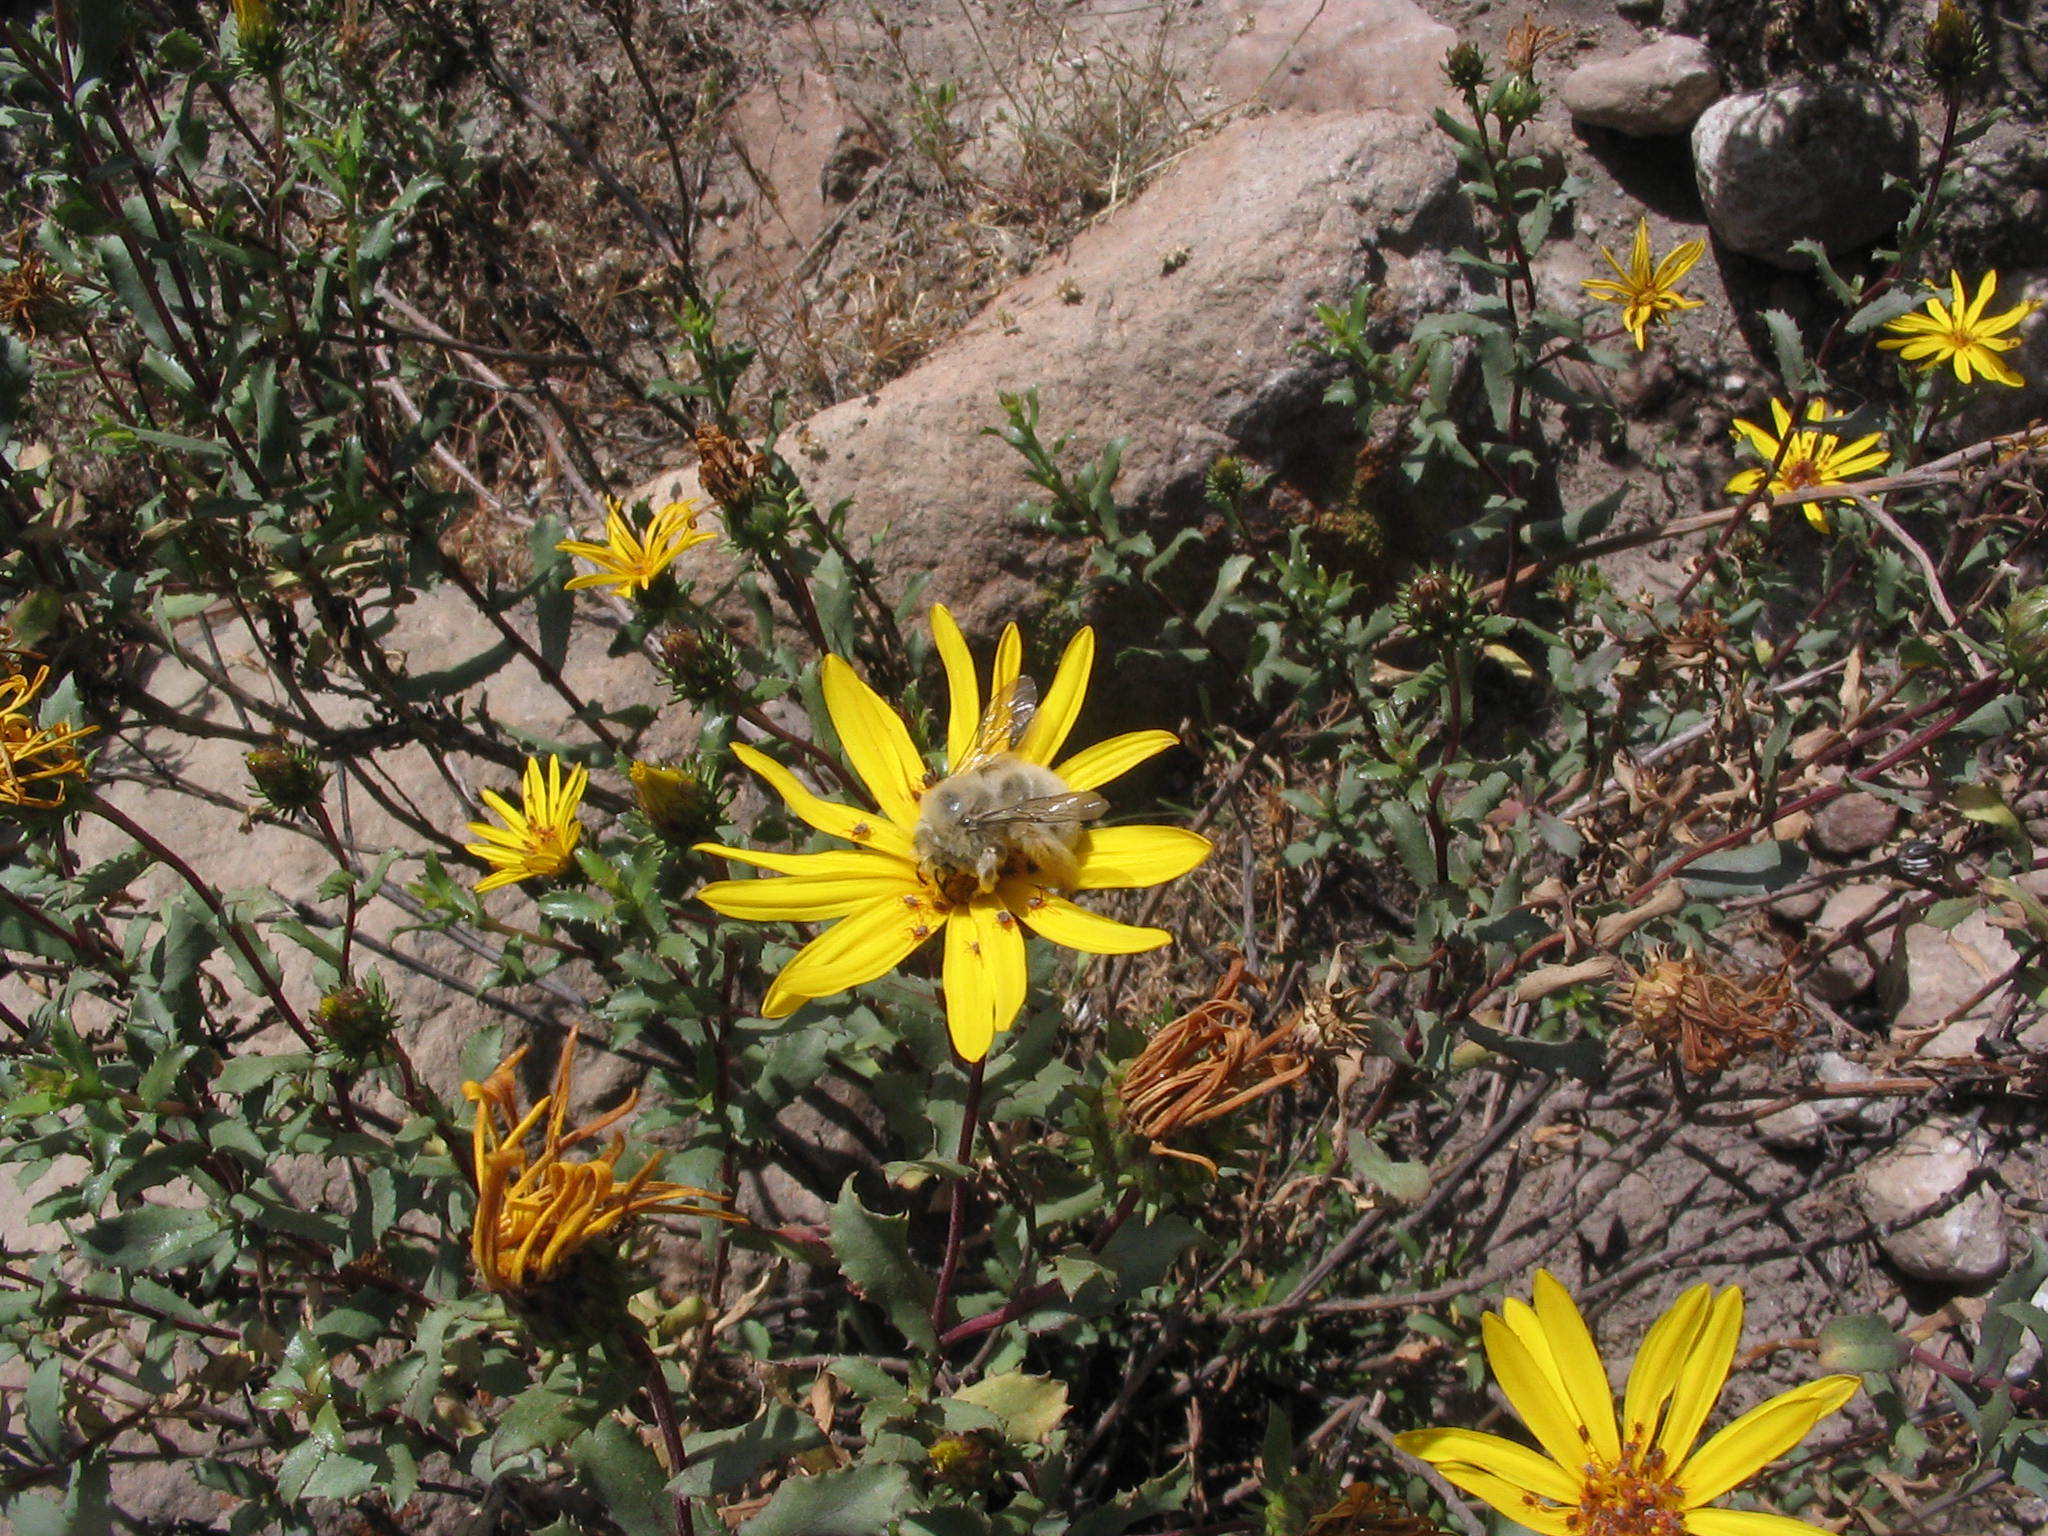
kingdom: Animalia
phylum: Arthropoda
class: Insecta
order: Hymenoptera
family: Apidae
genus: Diadasia
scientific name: Diadasia baeri
